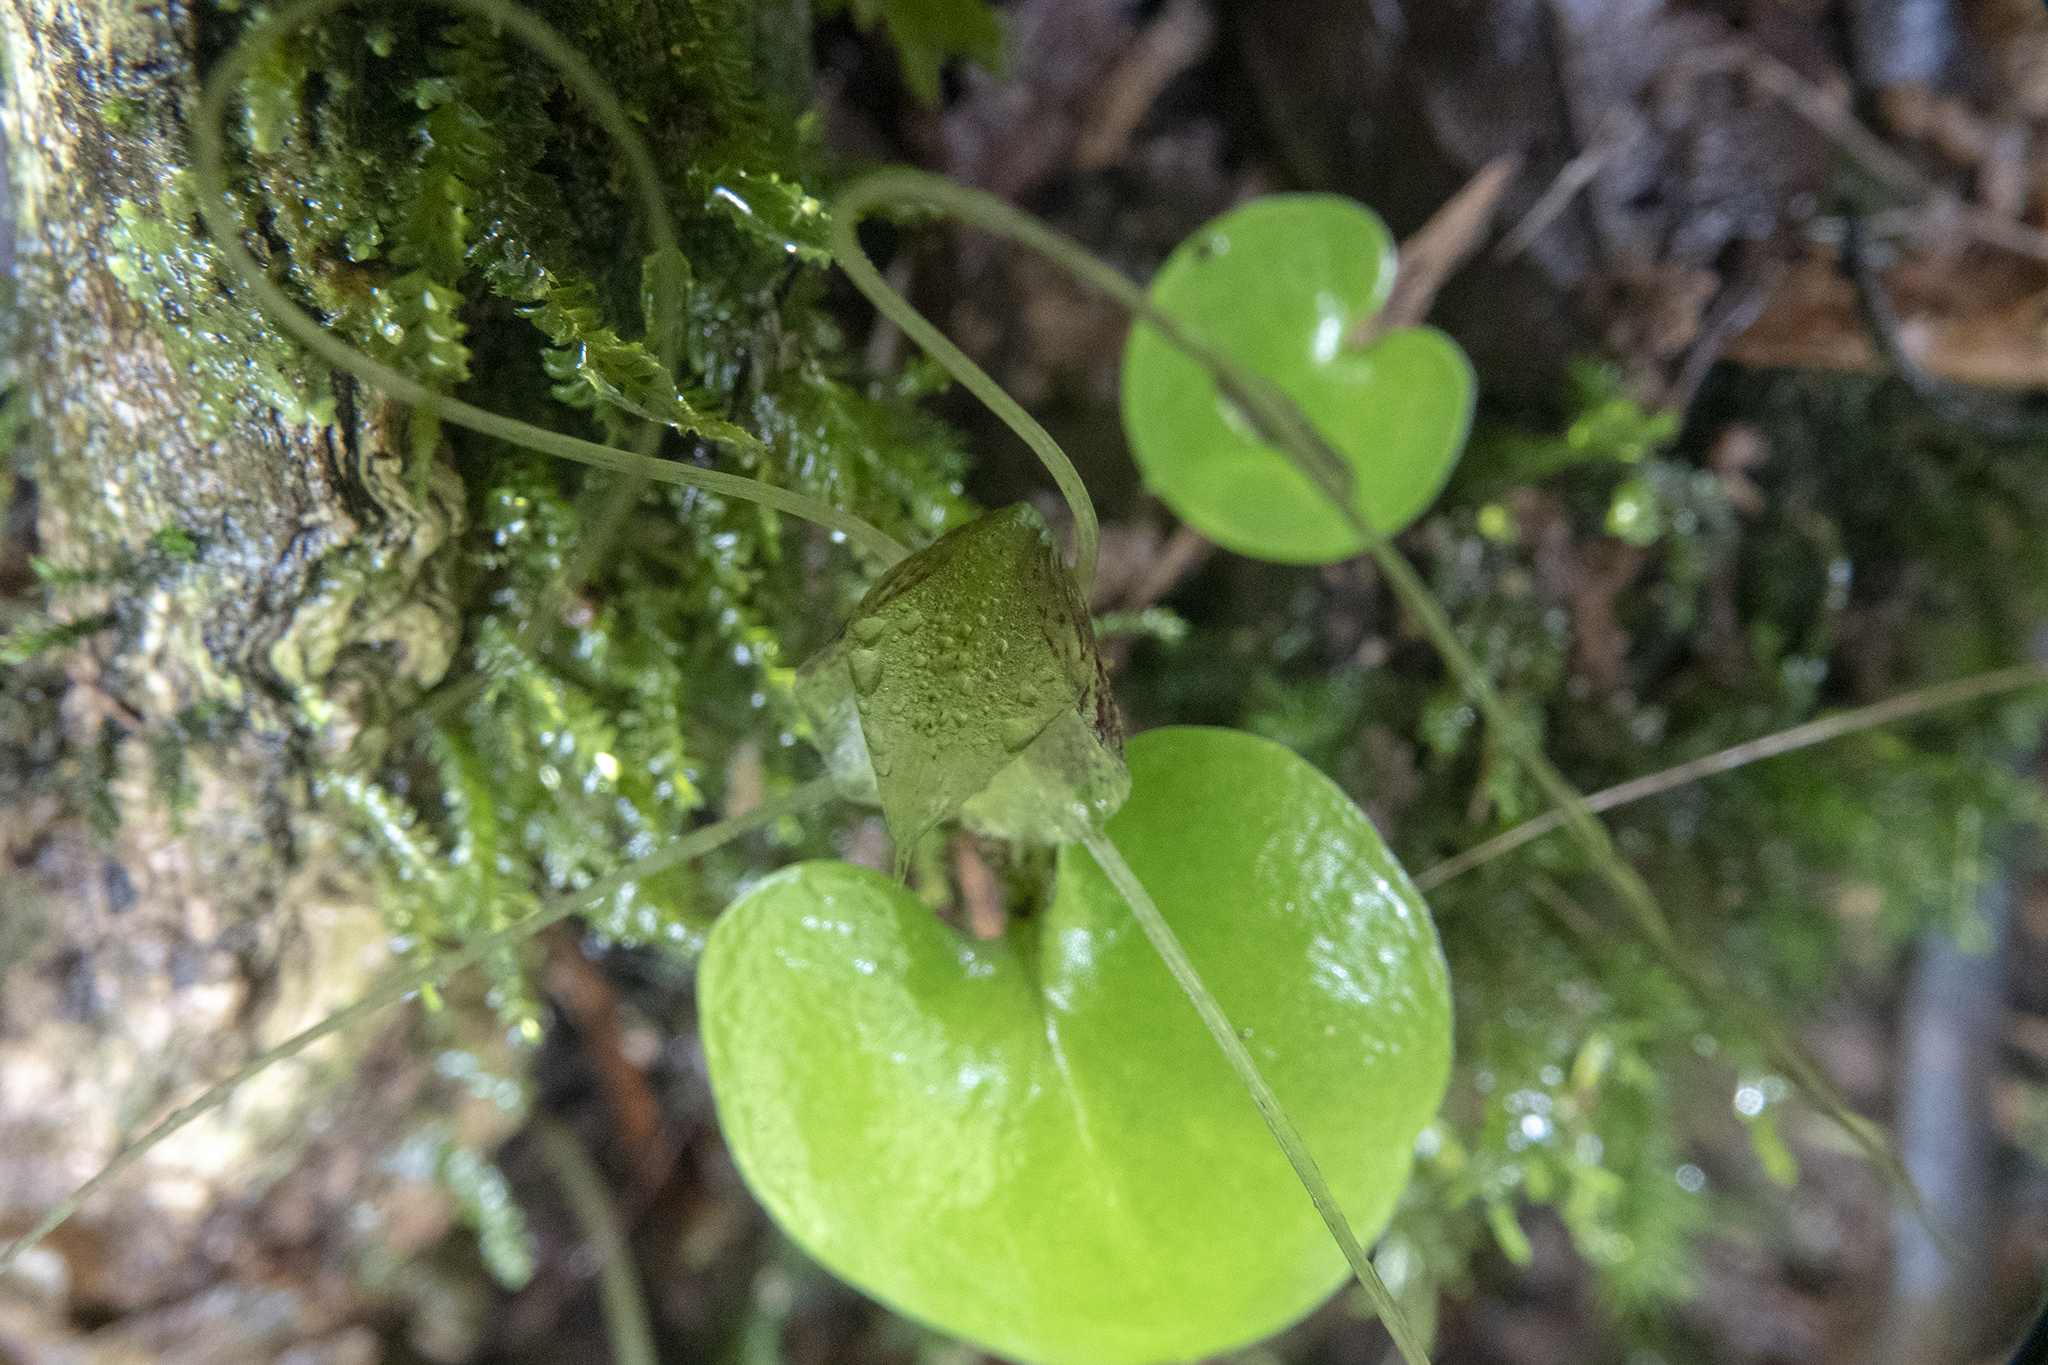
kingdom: Plantae
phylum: Tracheophyta
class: Liliopsida
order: Asparagales
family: Orchidaceae
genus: Corybas
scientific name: Corybas hatchii
